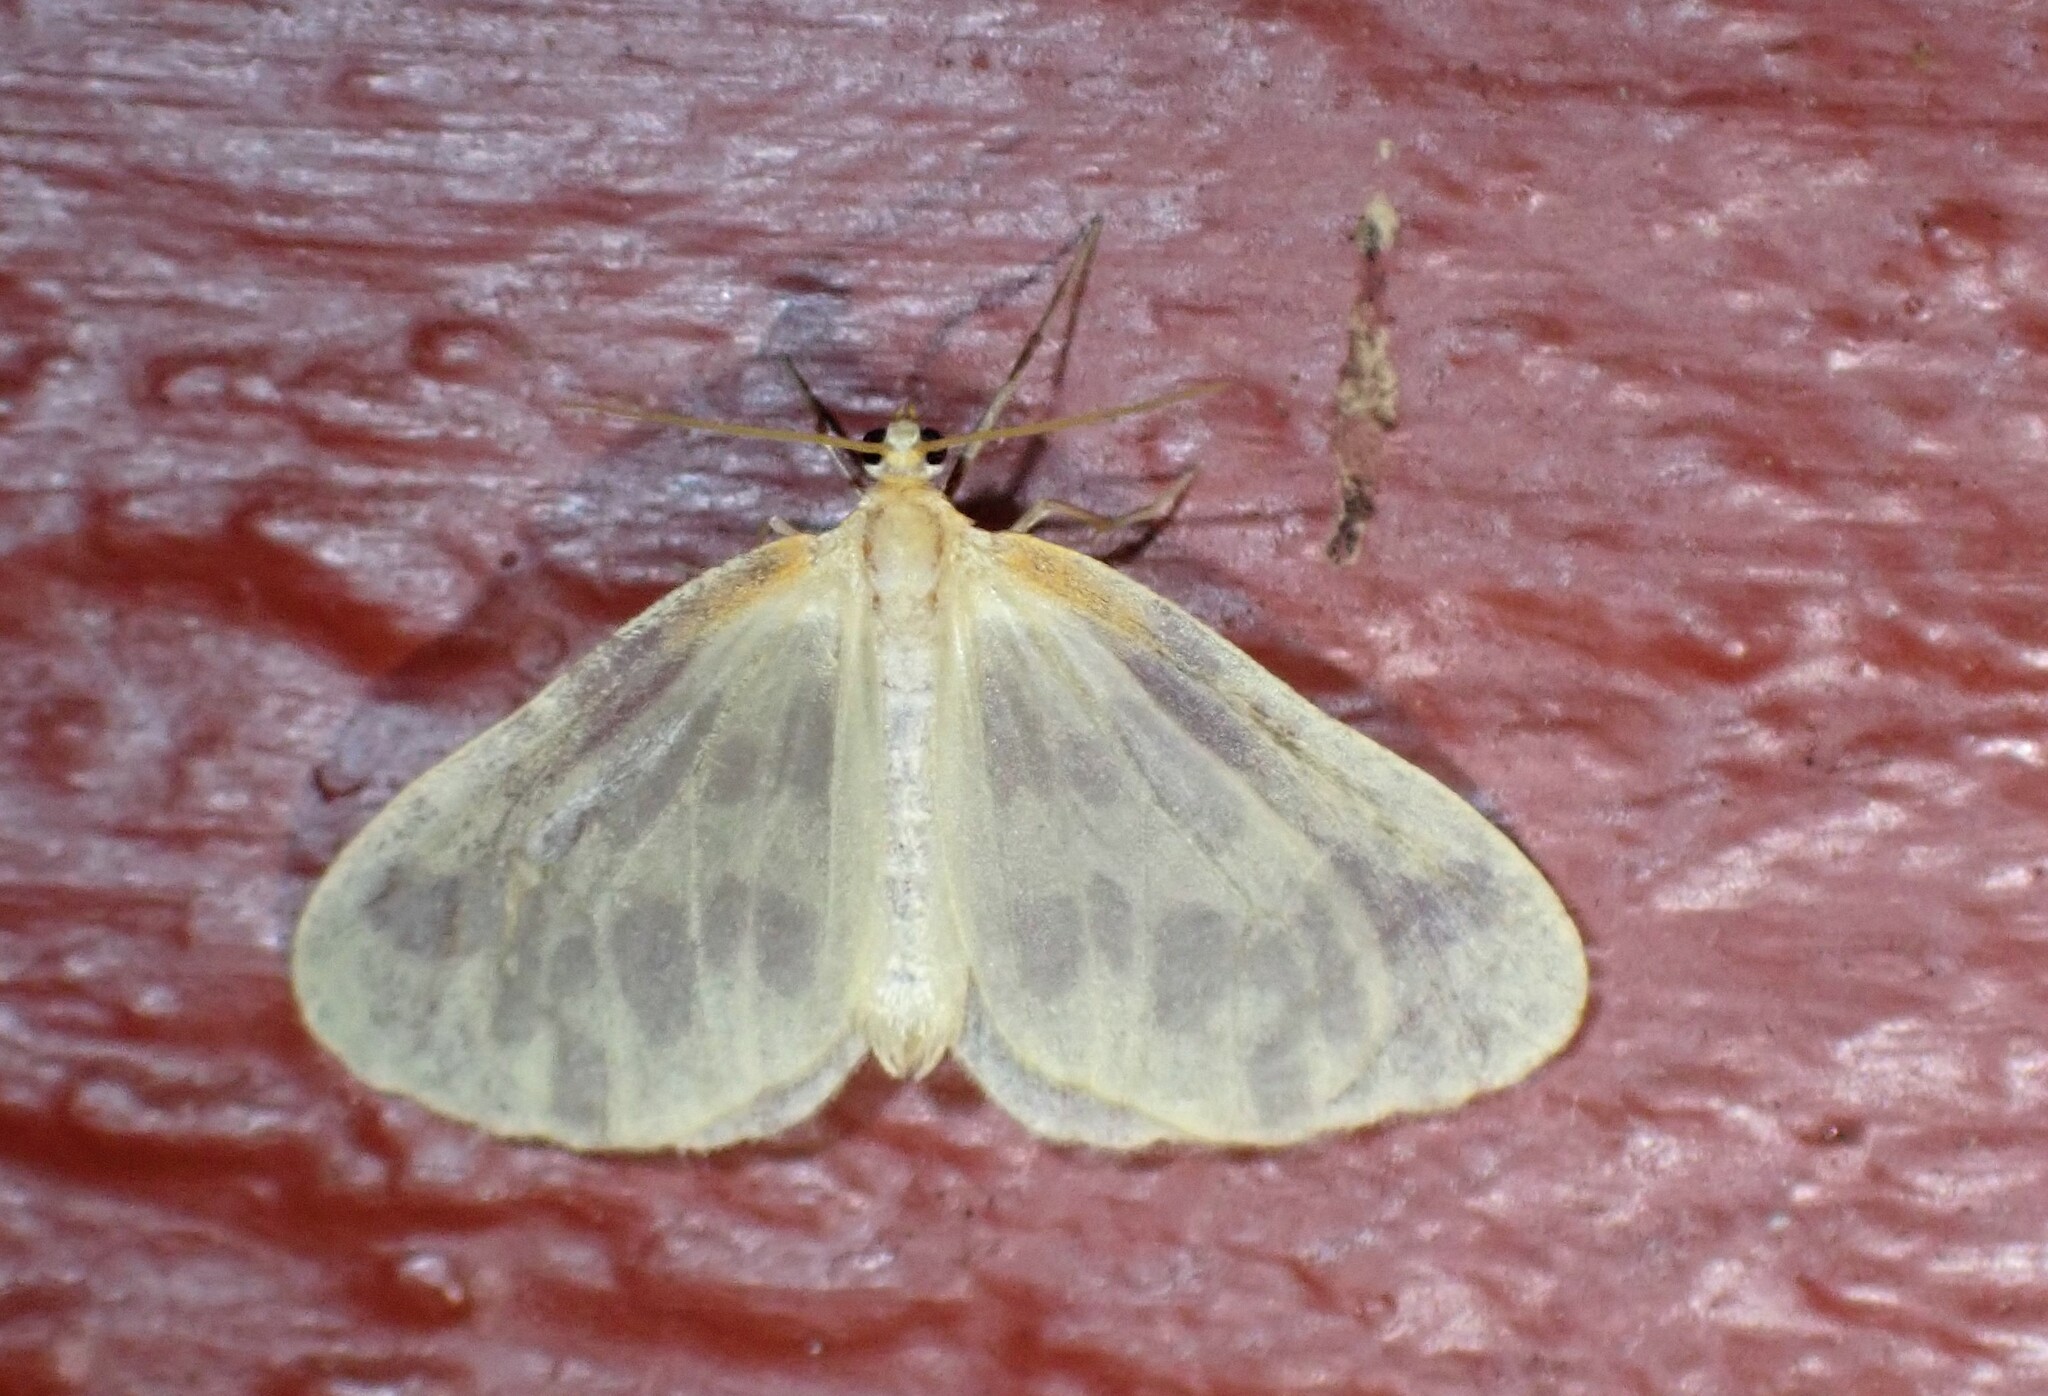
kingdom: Animalia
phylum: Arthropoda
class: Insecta
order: Lepidoptera
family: Geometridae
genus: Eubaphe
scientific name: Eubaphe mendica
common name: Beggar
